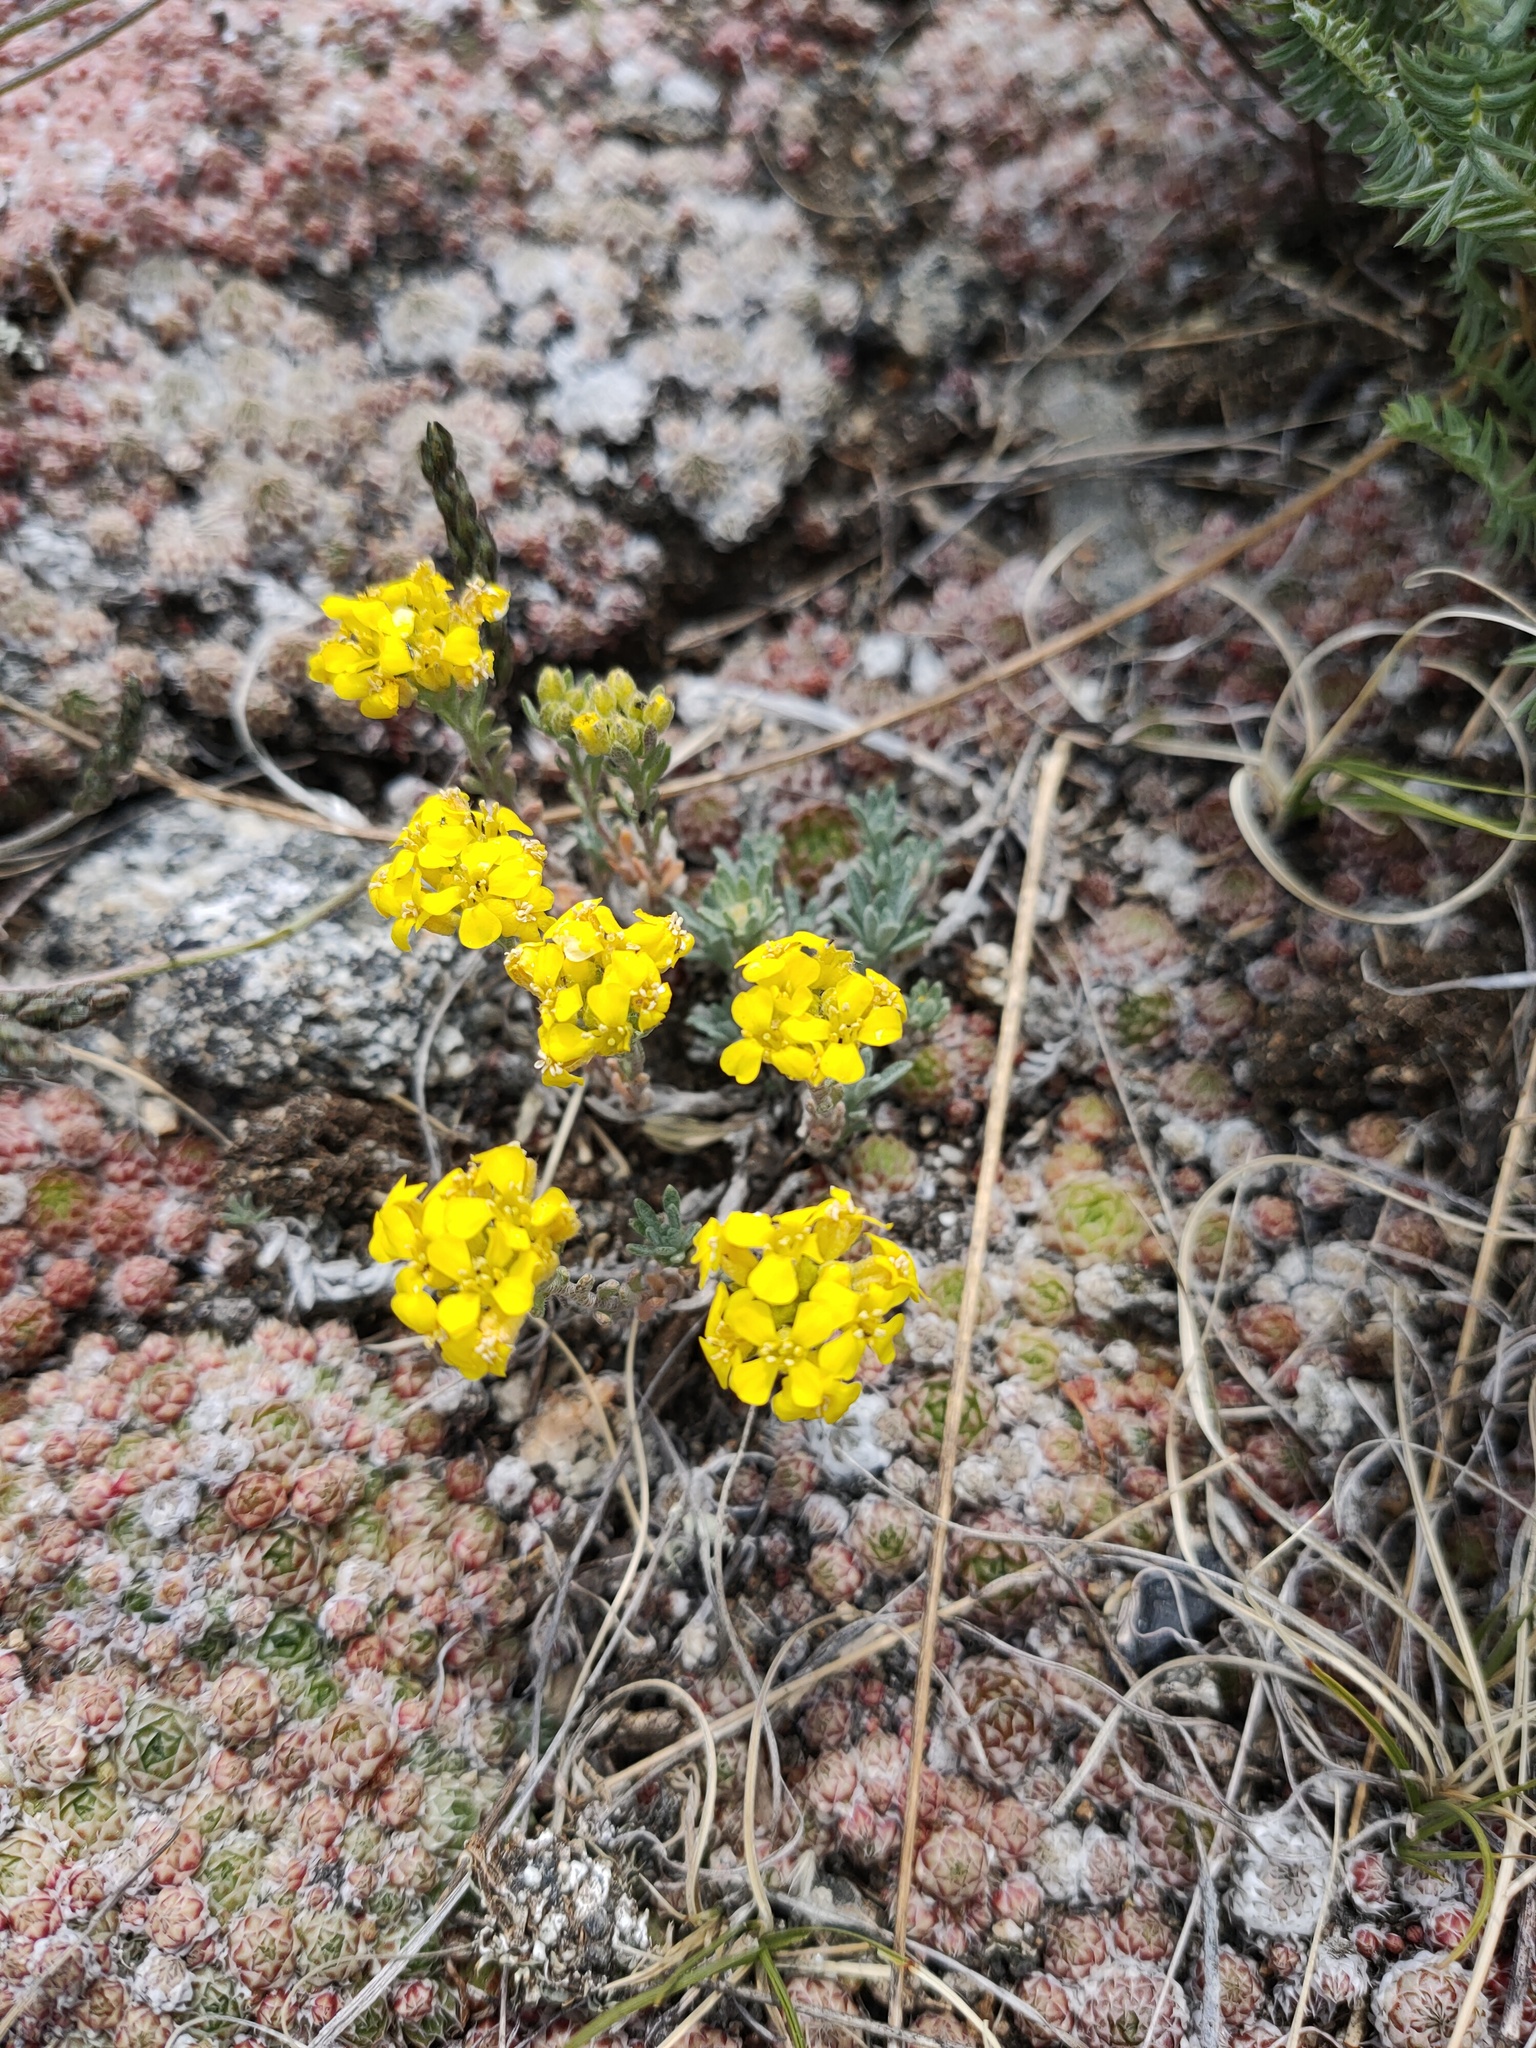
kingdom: Plantae
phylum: Tracheophyta
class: Magnoliopsida
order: Brassicales
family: Brassicaceae
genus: Alyssum
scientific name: Alyssum lenense
